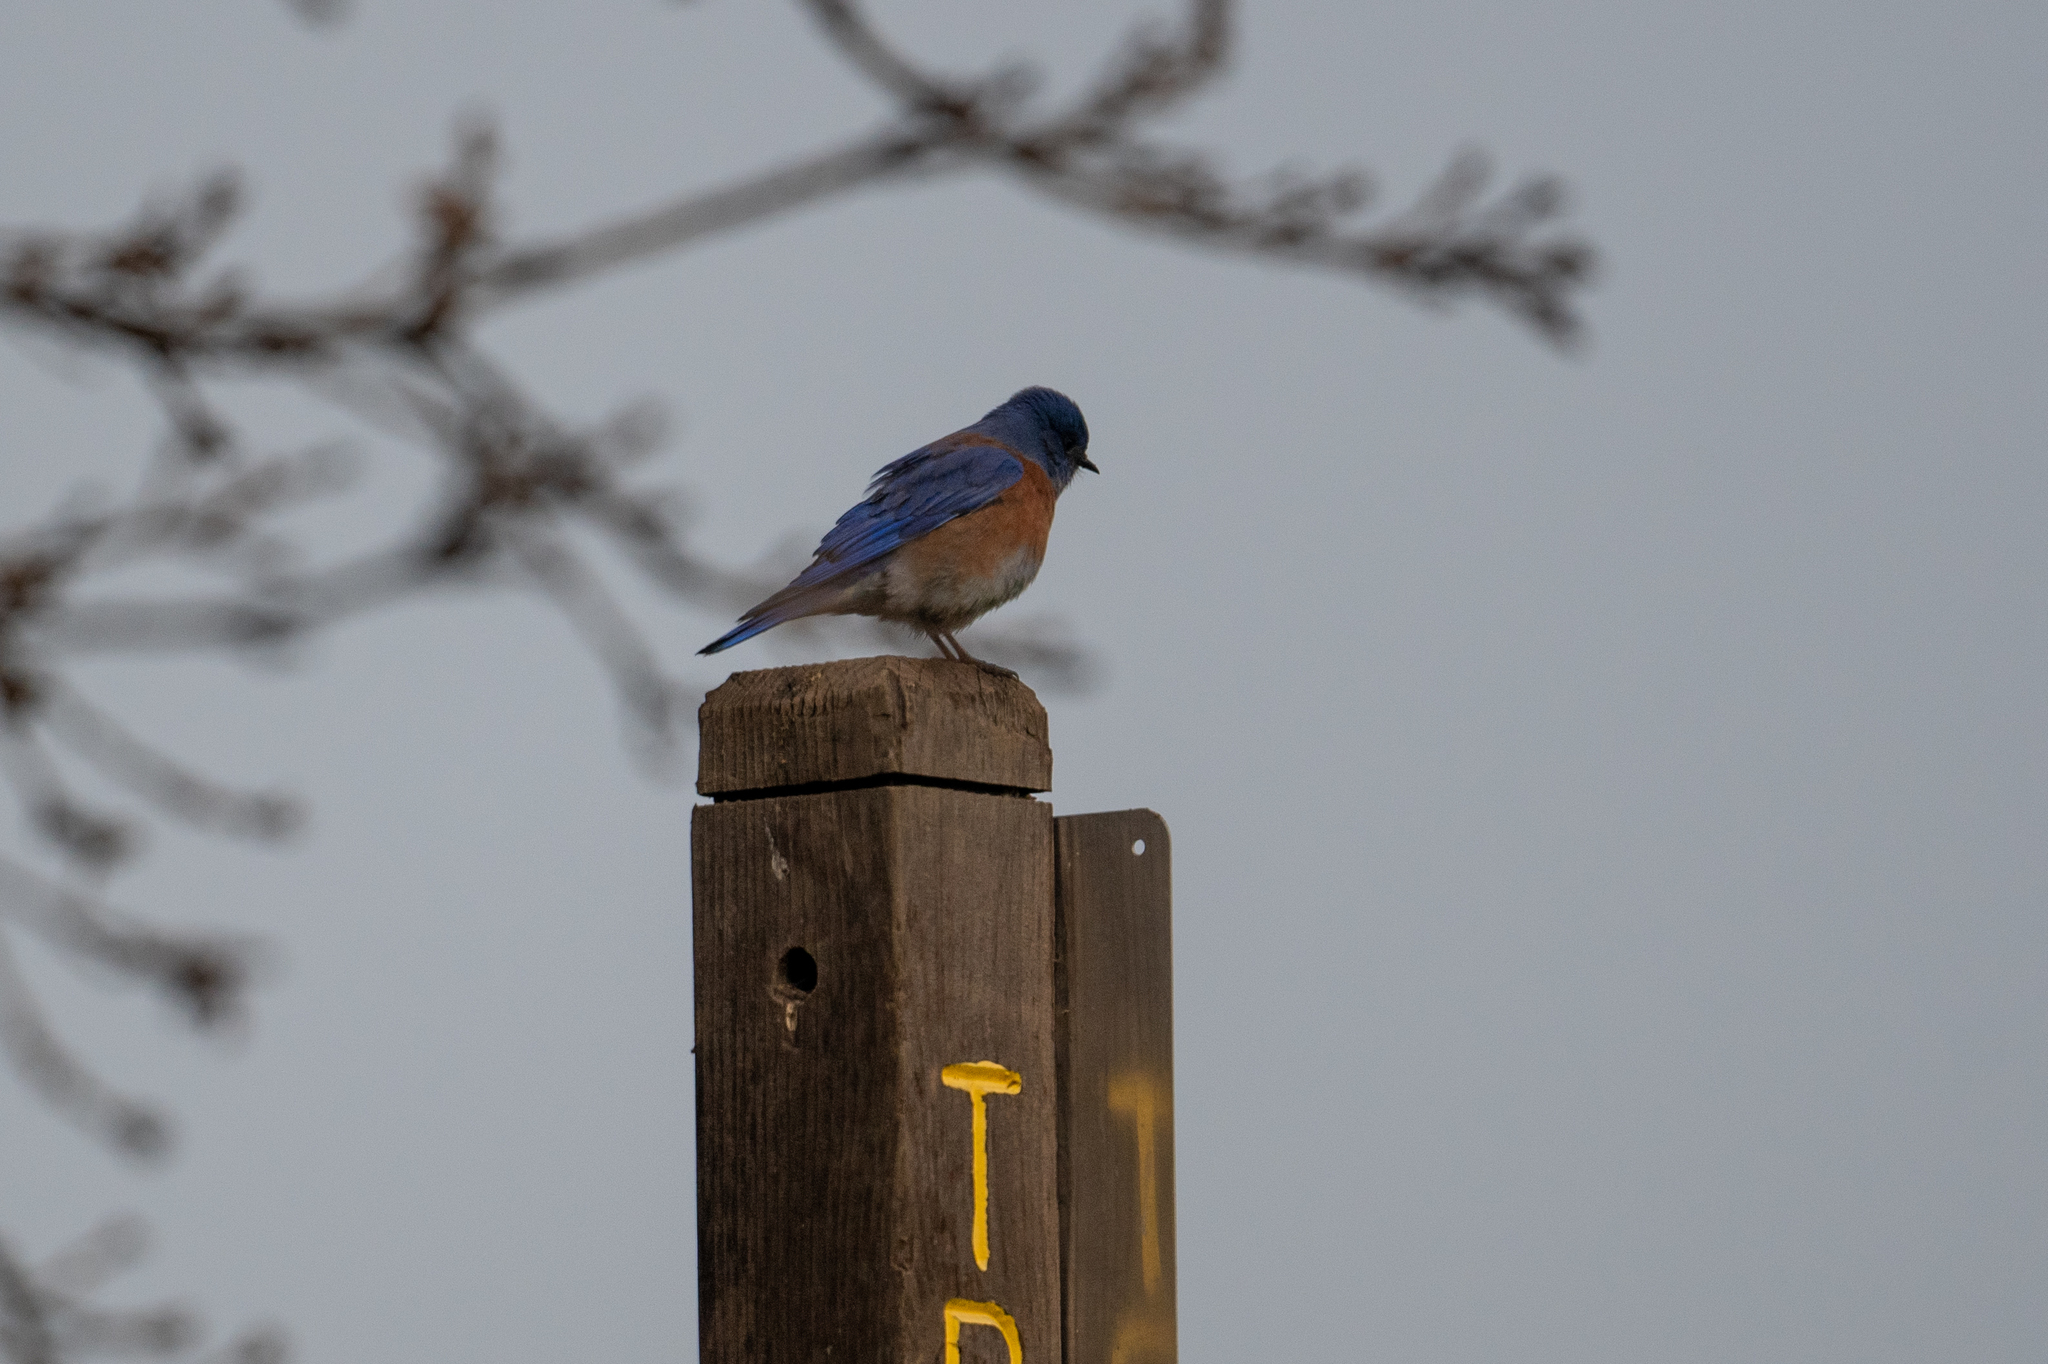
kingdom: Animalia
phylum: Chordata
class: Aves
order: Passeriformes
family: Turdidae
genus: Sialia
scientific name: Sialia mexicana
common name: Western bluebird
